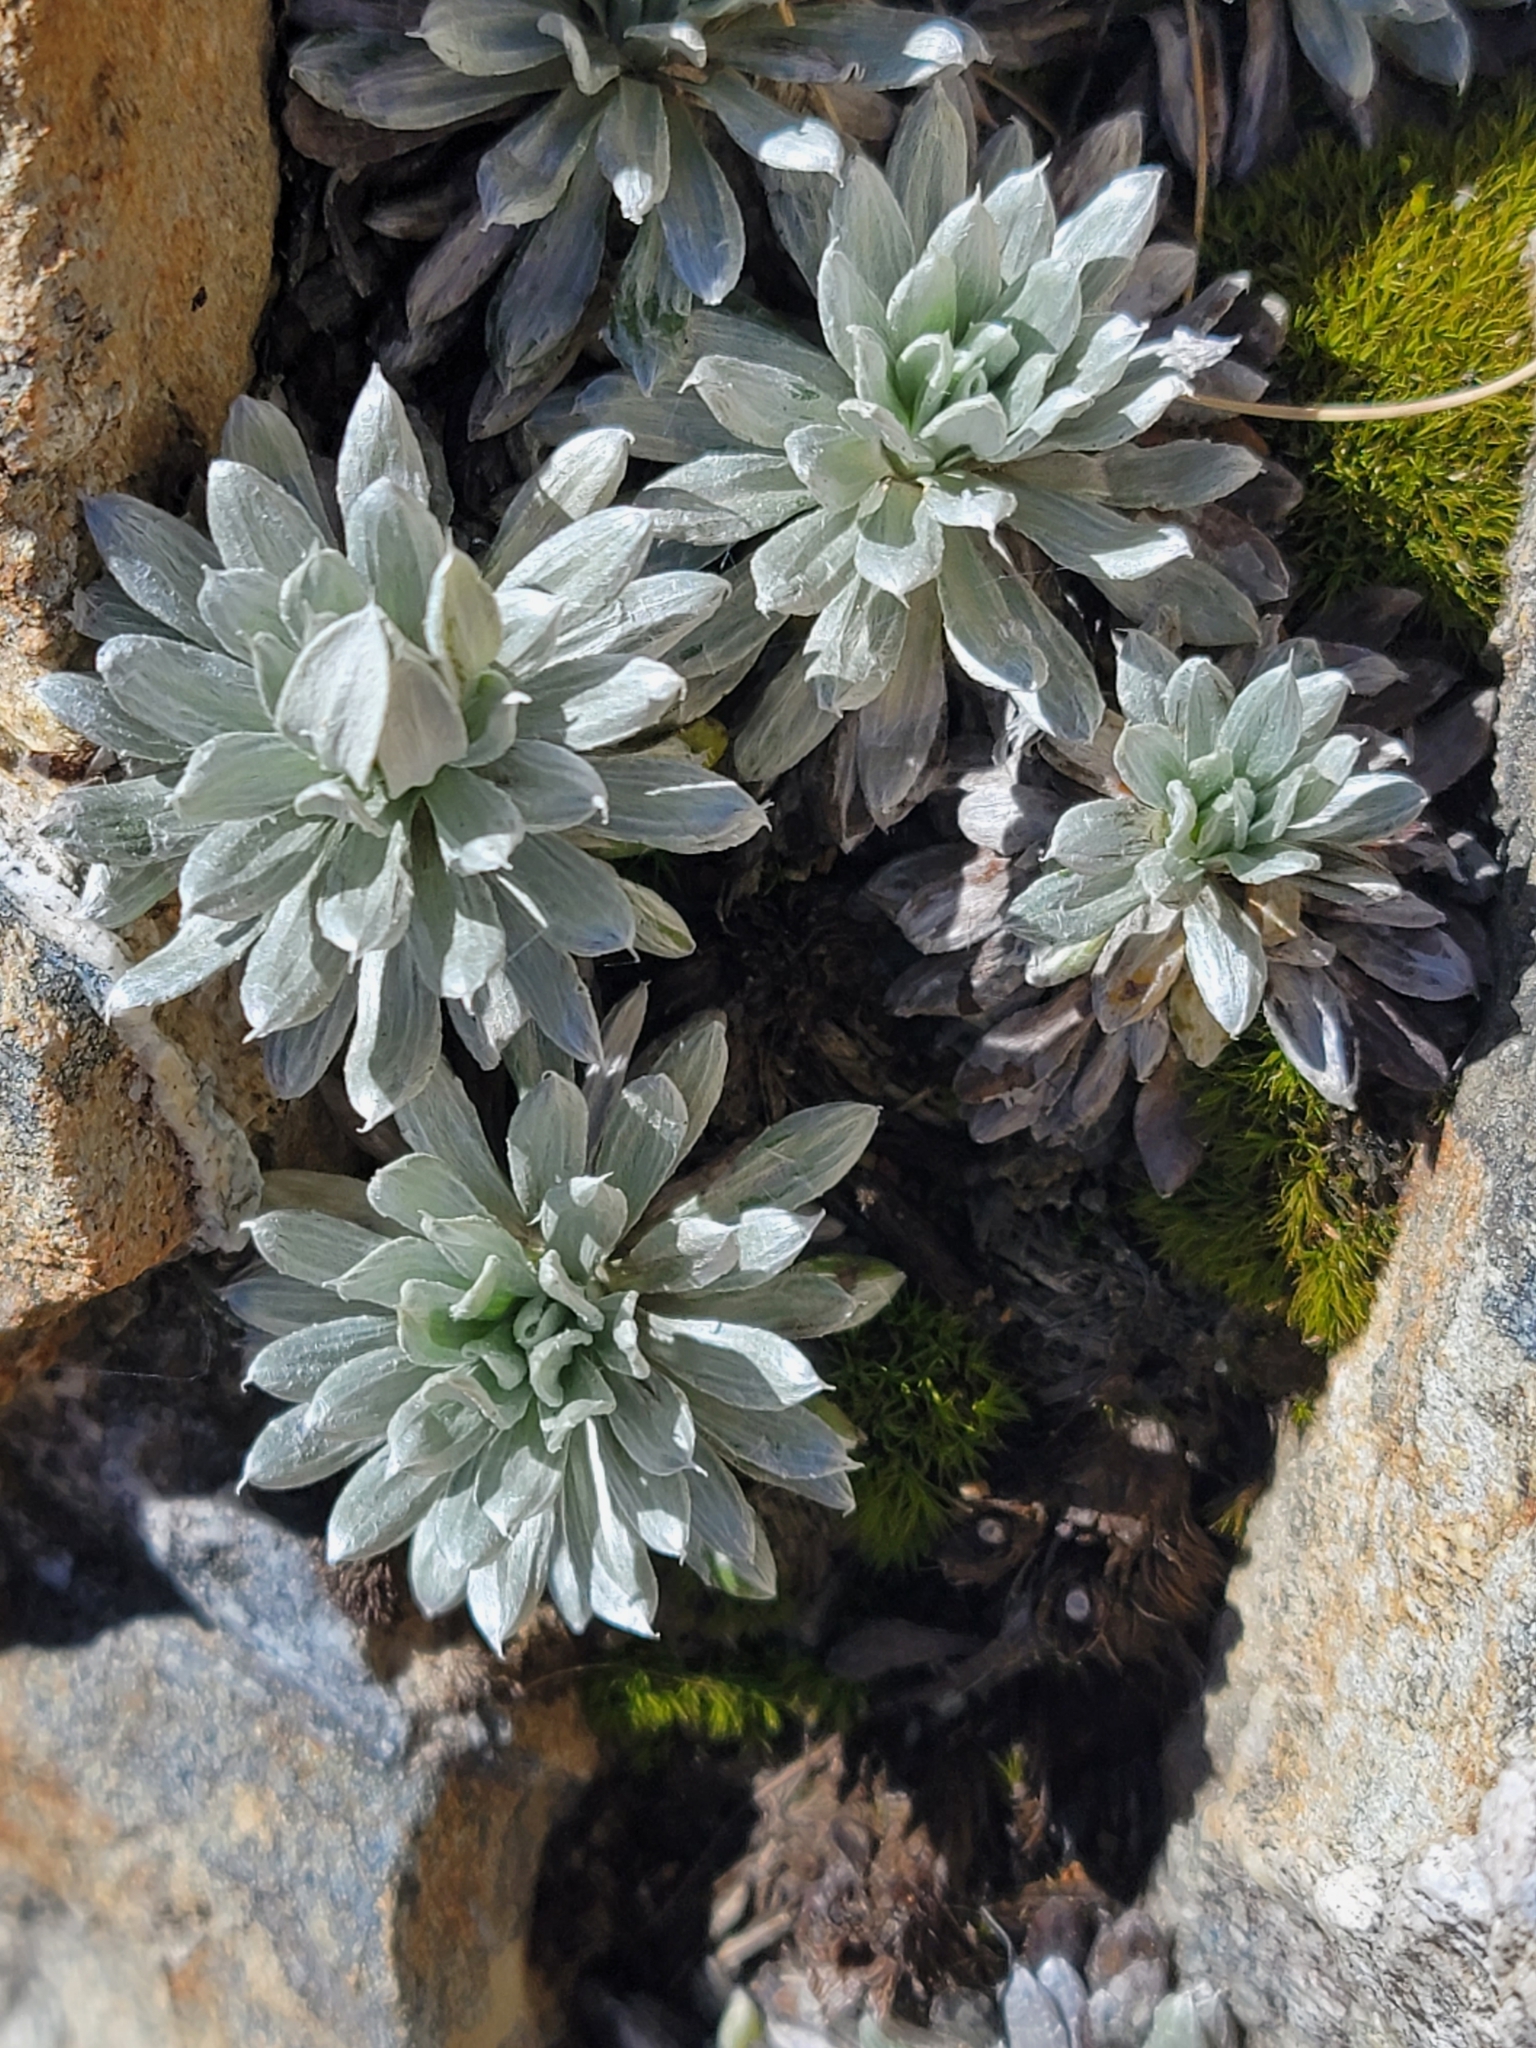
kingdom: Plantae
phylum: Tracheophyta
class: Magnoliopsida
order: Asterales
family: Asteraceae
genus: Celmisia
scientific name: Celmisia hectorii
